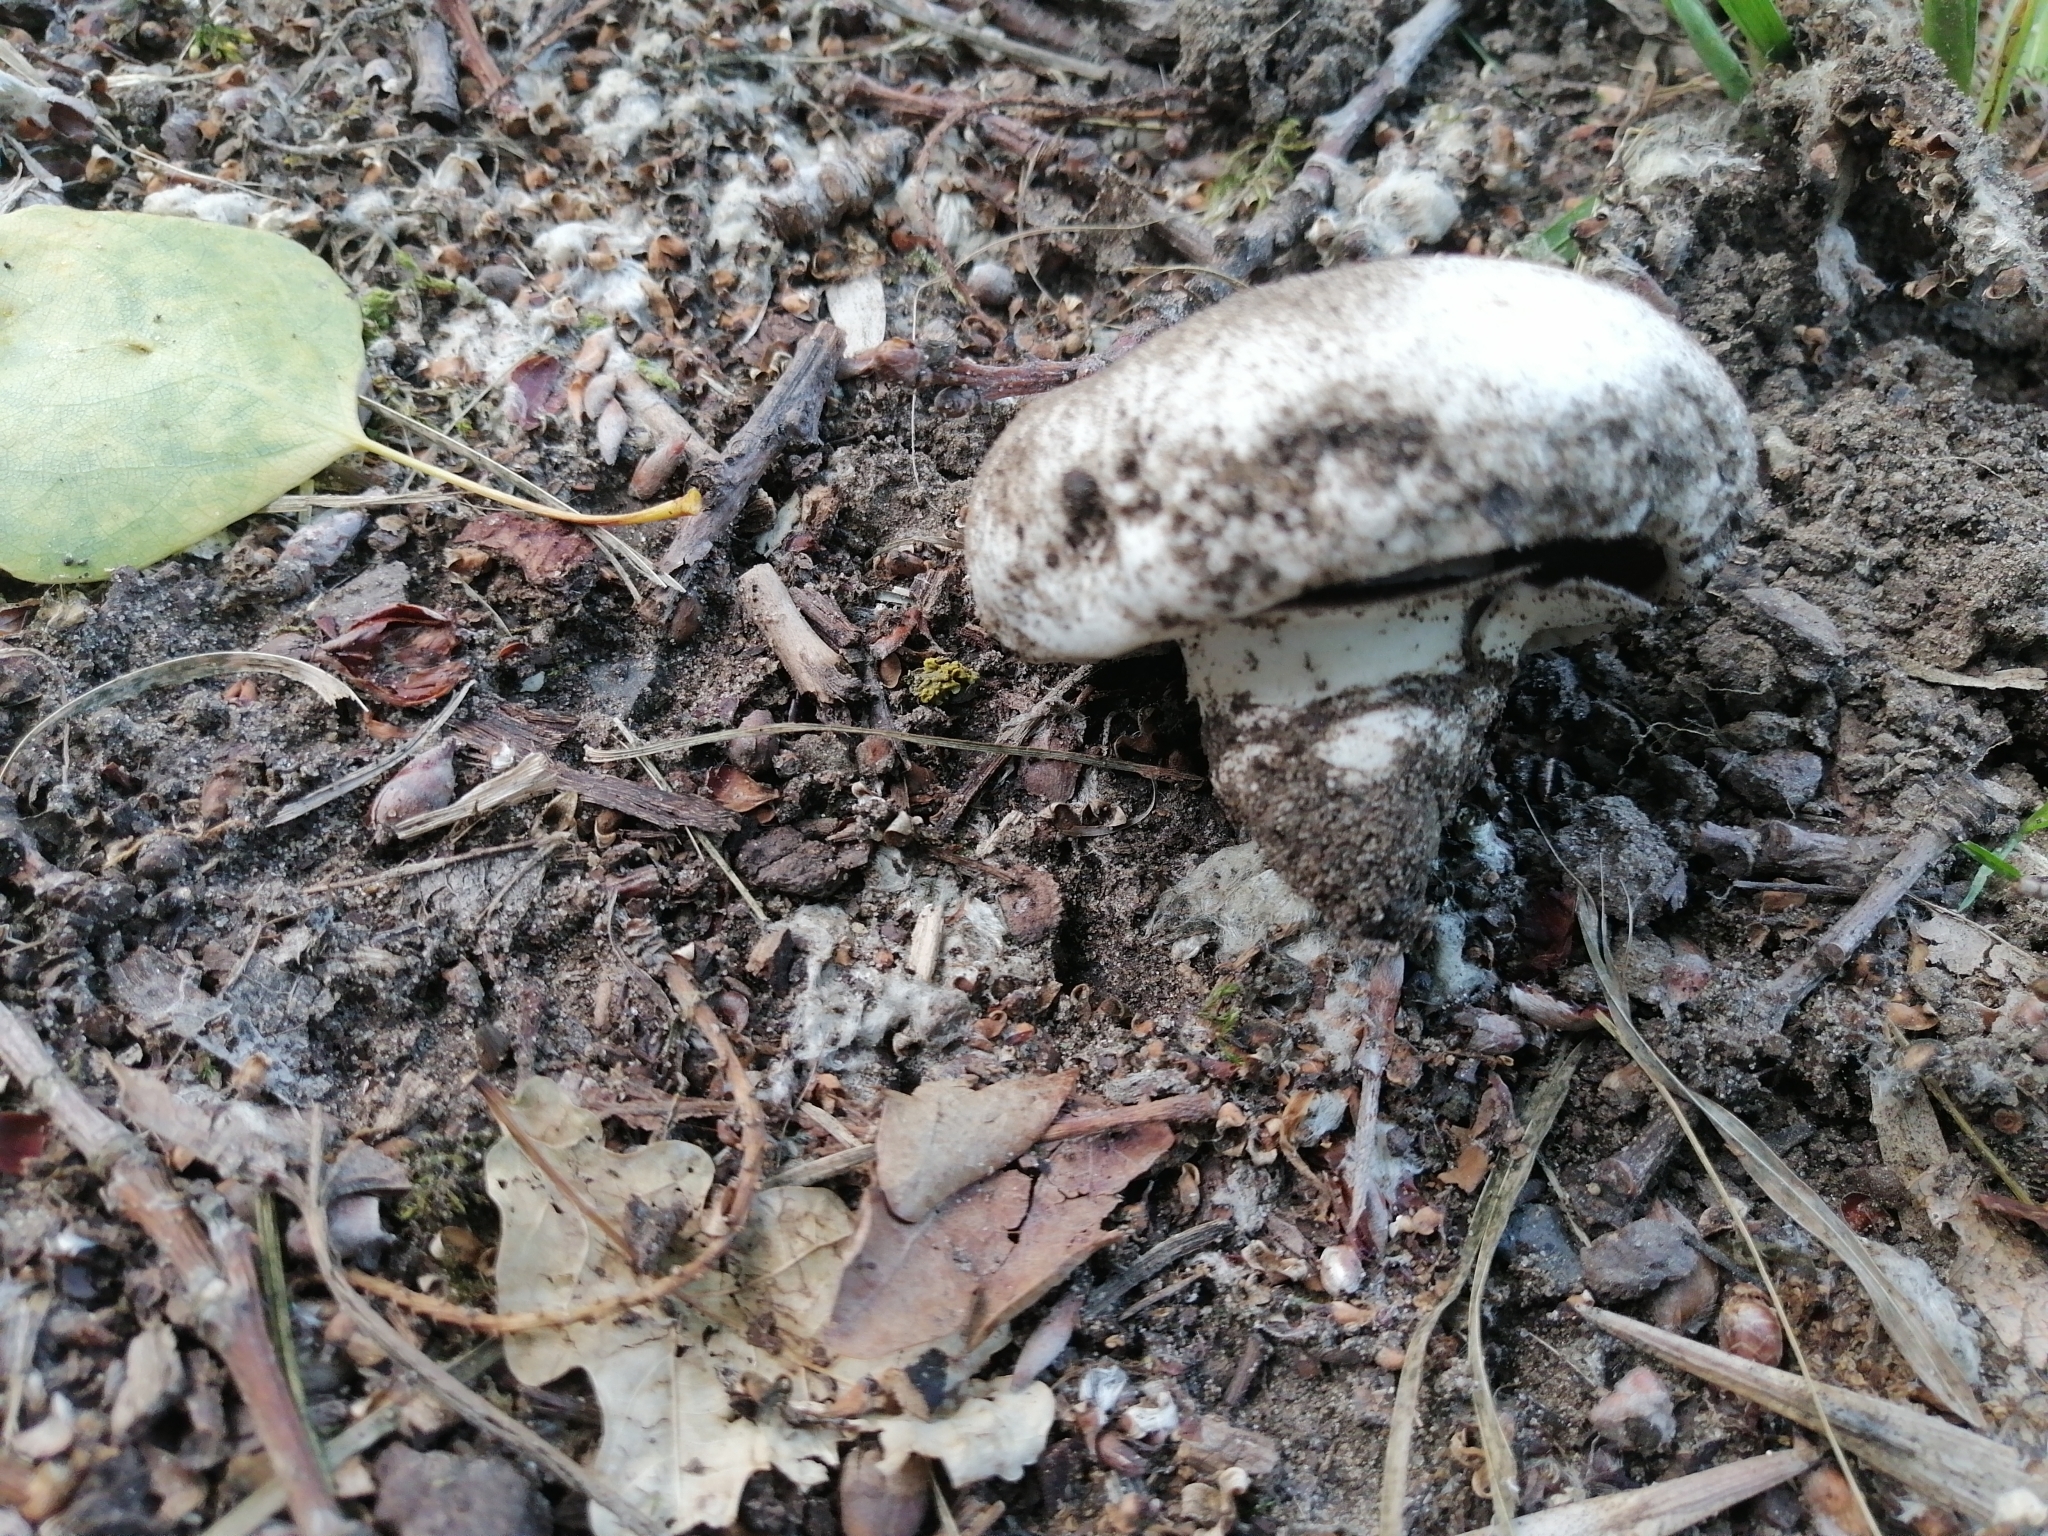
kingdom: Fungi
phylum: Basidiomycota
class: Agaricomycetes
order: Agaricales
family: Agaricaceae
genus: Agaricus
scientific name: Agaricus bitorquis
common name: Pavement mushroom
